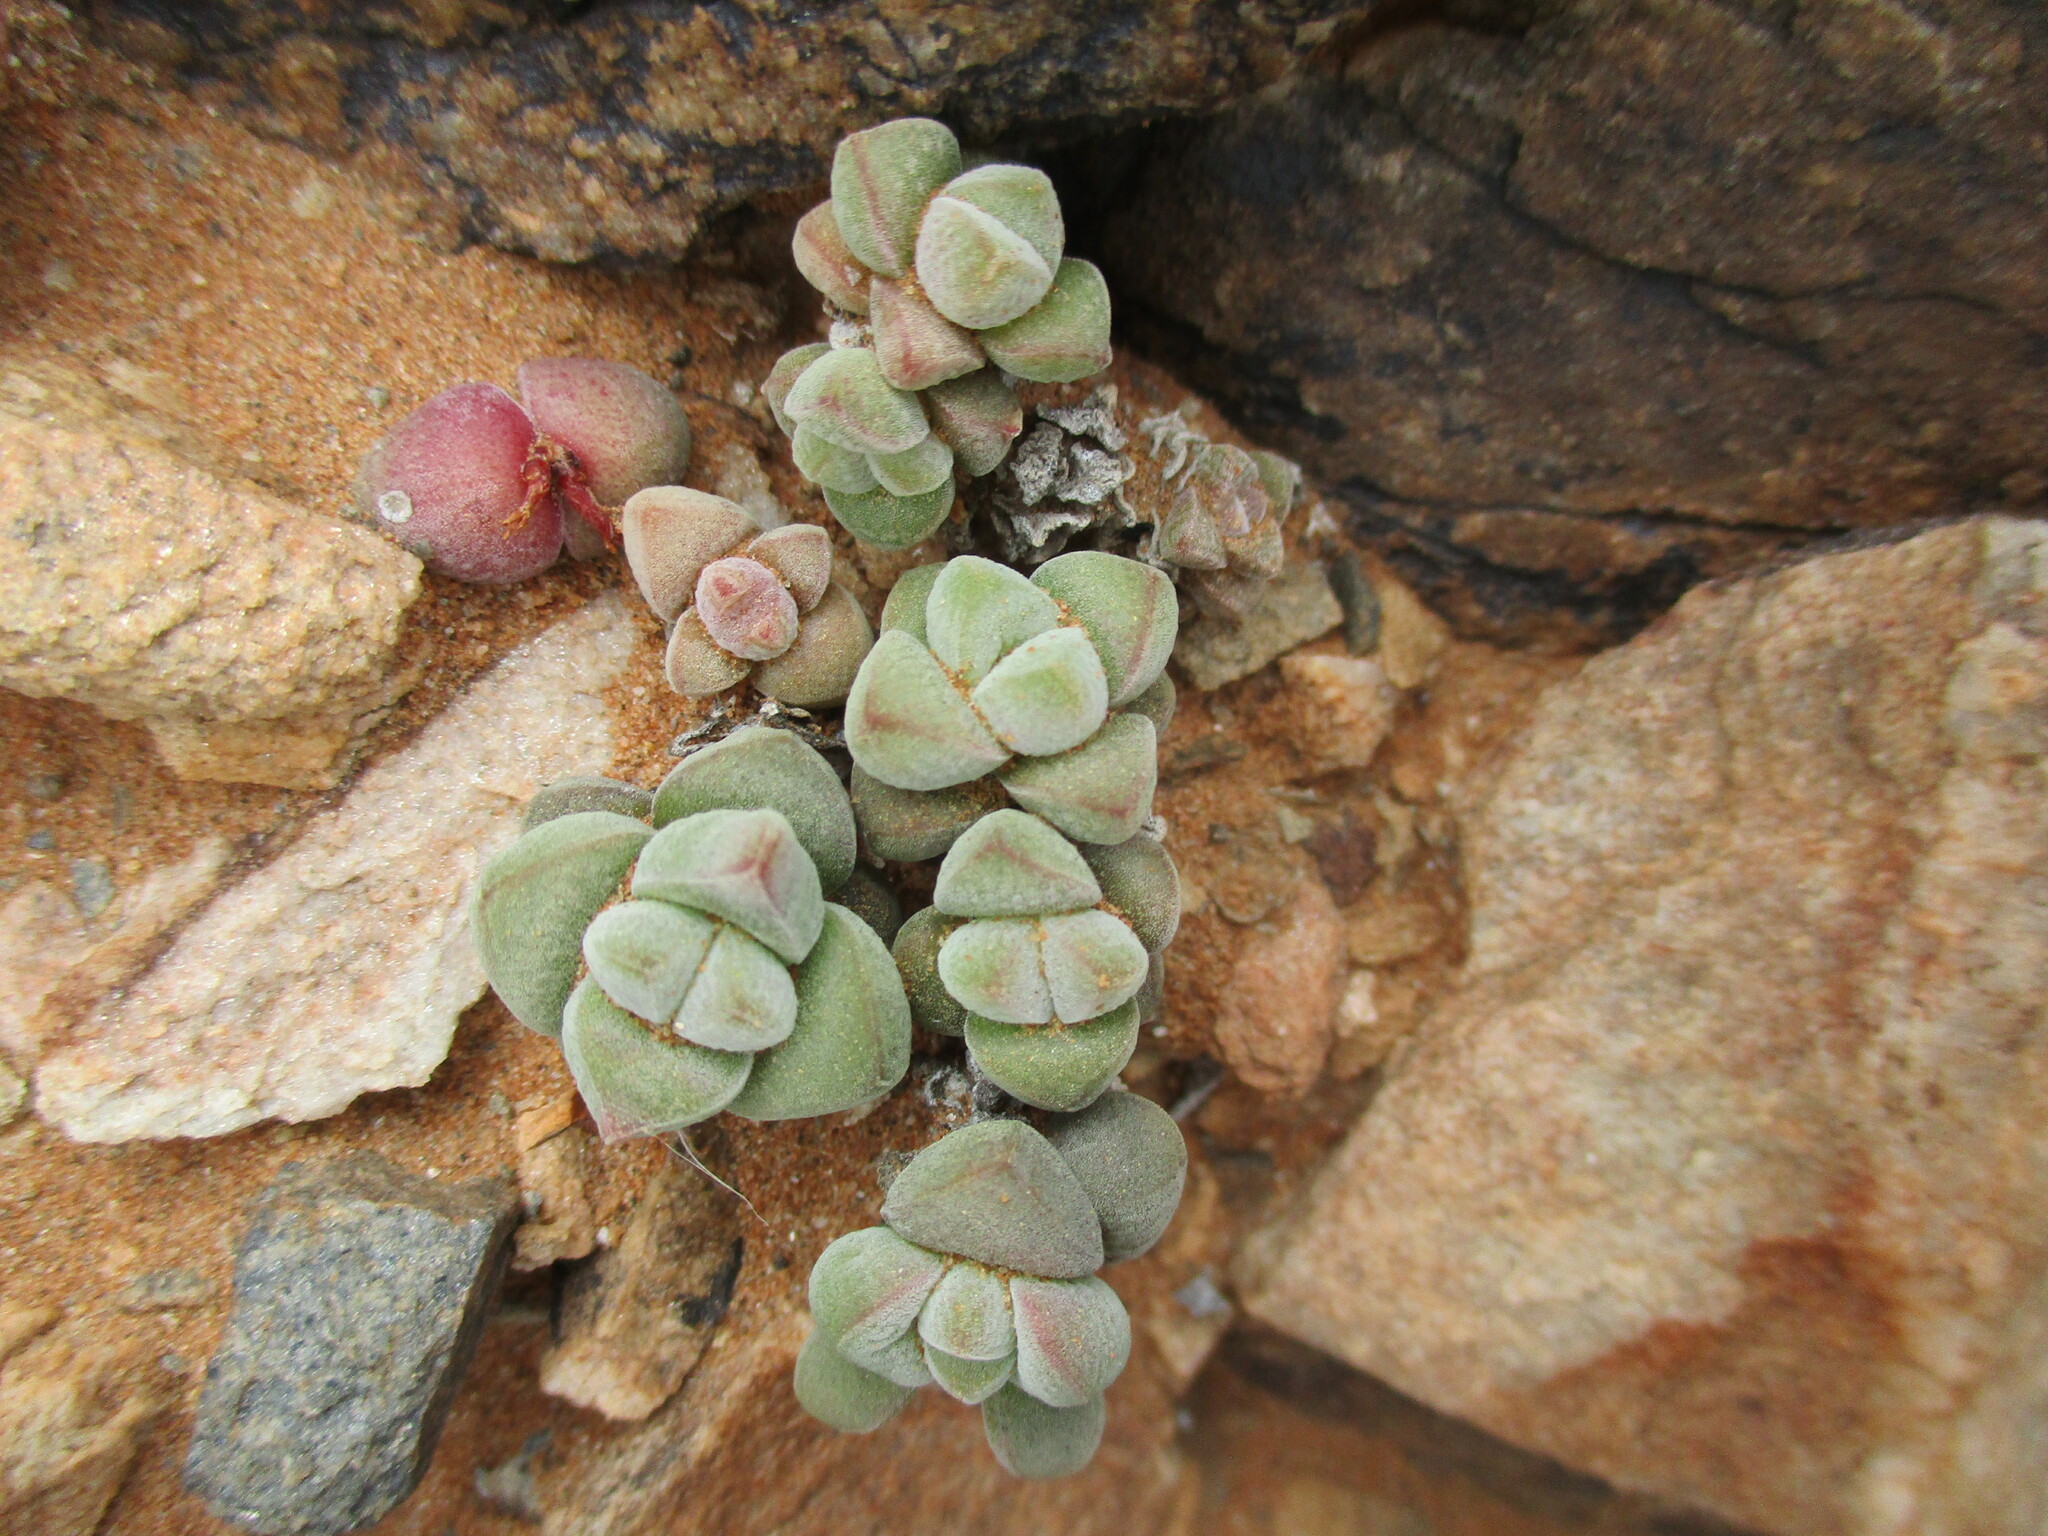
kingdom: Plantae
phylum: Tracheophyta
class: Magnoliopsida
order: Saxifragales
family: Crassulaceae
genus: Crassula
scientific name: Crassula sericea
